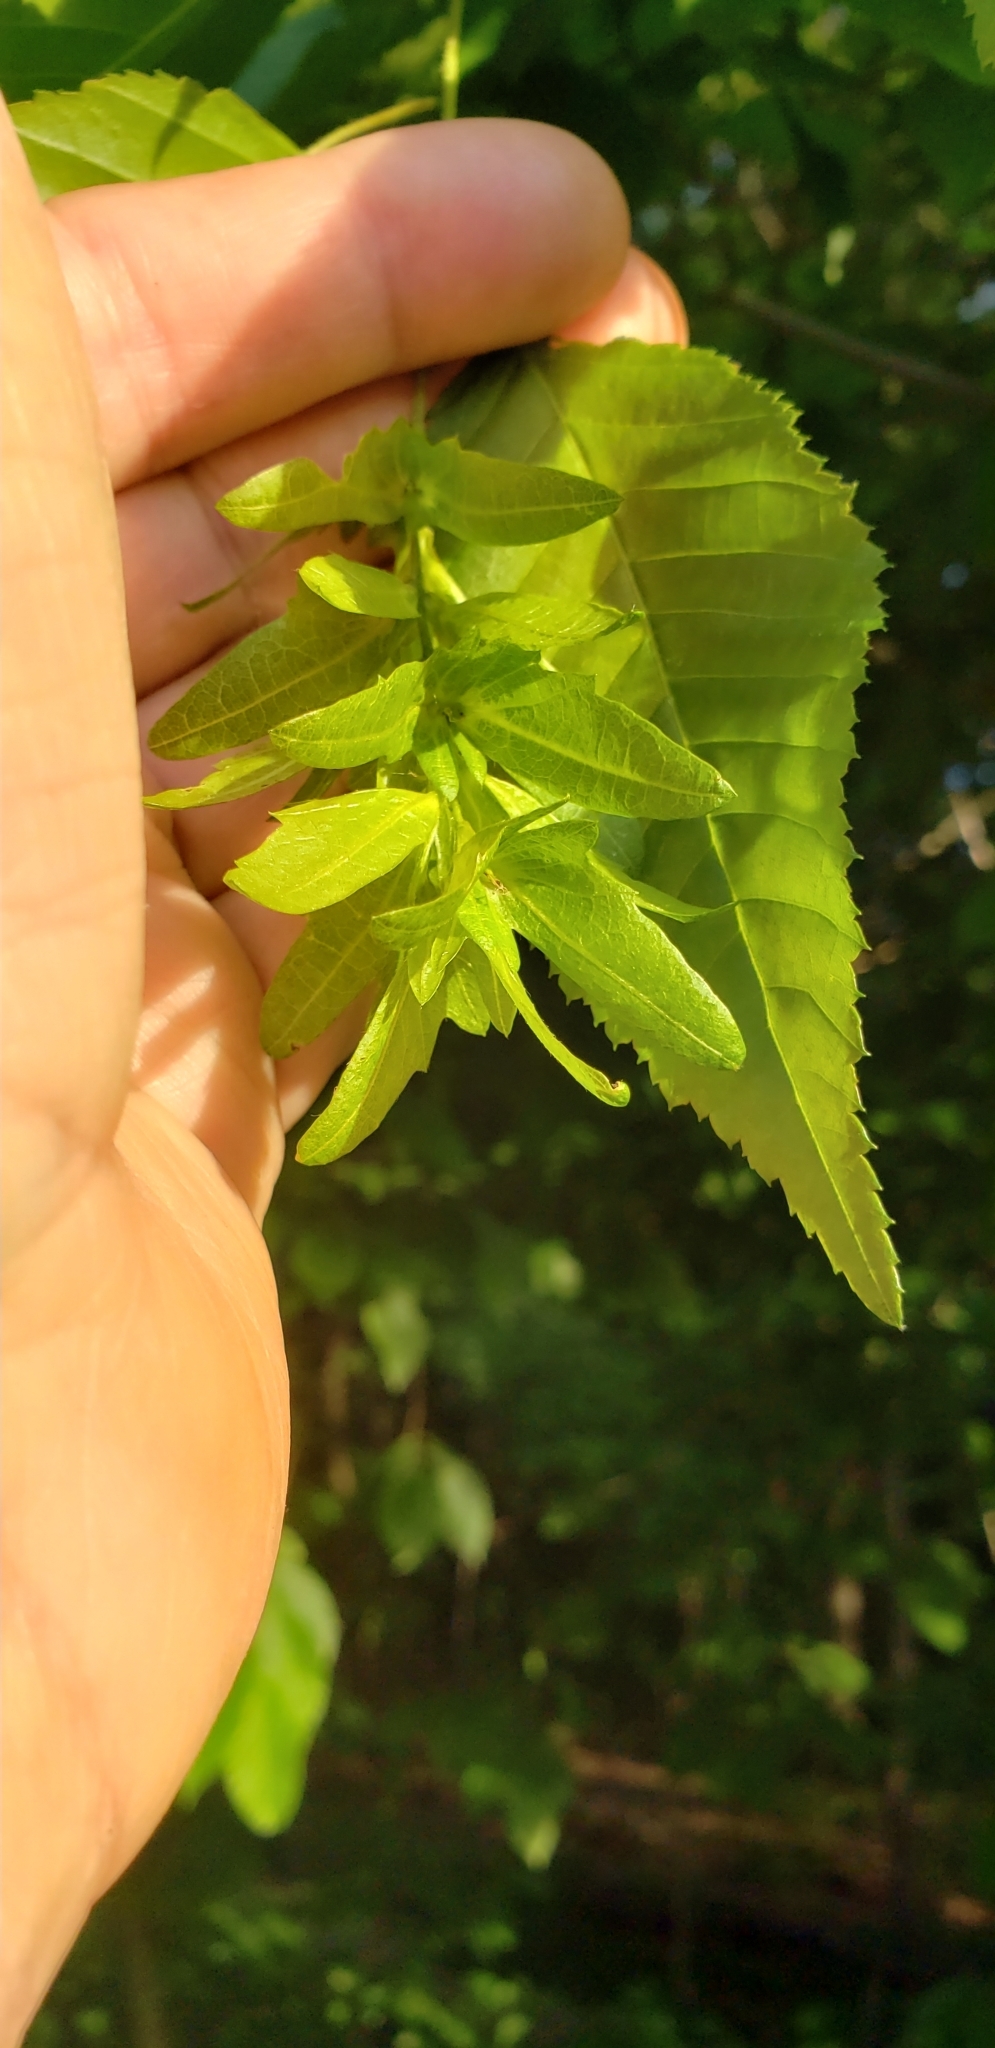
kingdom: Plantae
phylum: Tracheophyta
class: Magnoliopsida
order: Fagales
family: Betulaceae
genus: Carpinus
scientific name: Carpinus caroliniana
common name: American hornbeam
